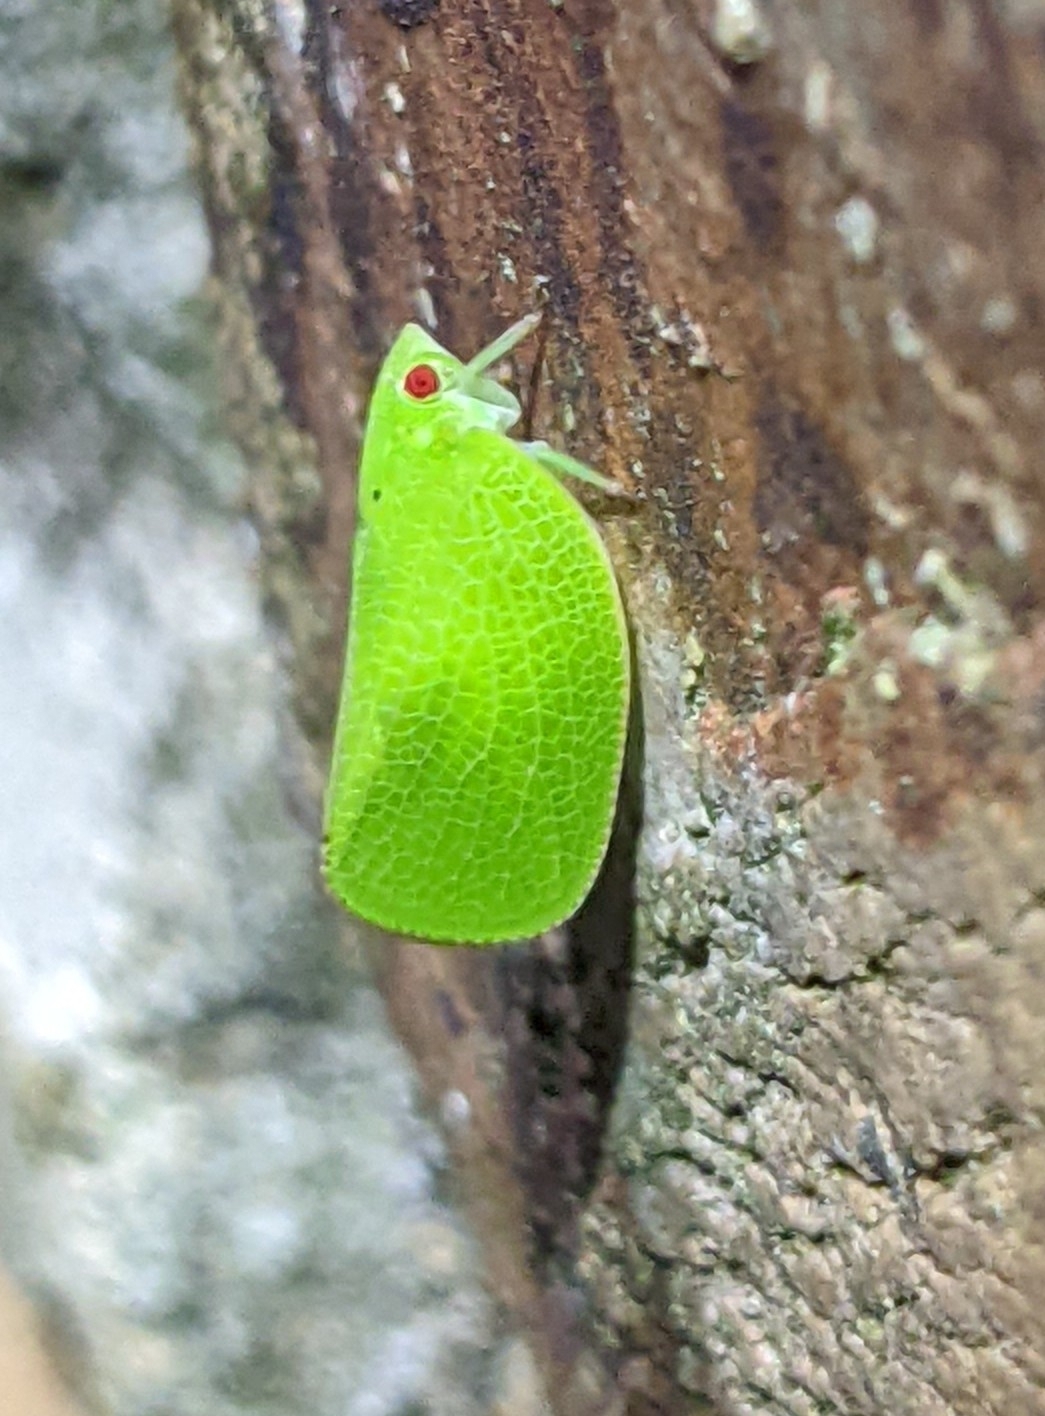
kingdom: Animalia
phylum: Arthropoda
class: Insecta
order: Hemiptera
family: Acanaloniidae
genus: Acanalonia
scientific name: Acanalonia conica
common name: Green cone-headed planthopper
